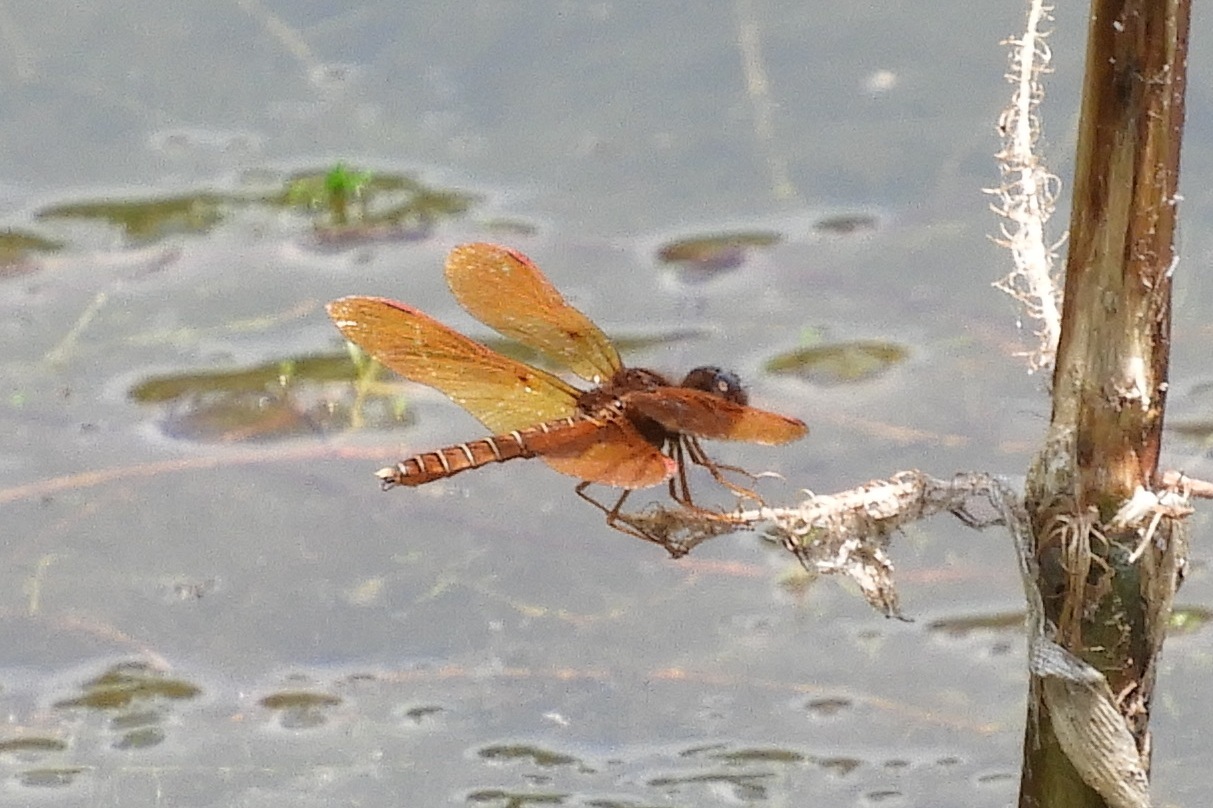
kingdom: Animalia
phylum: Arthropoda
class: Insecta
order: Odonata
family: Libellulidae
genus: Perithemis
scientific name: Perithemis tenera
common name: Eastern amberwing
